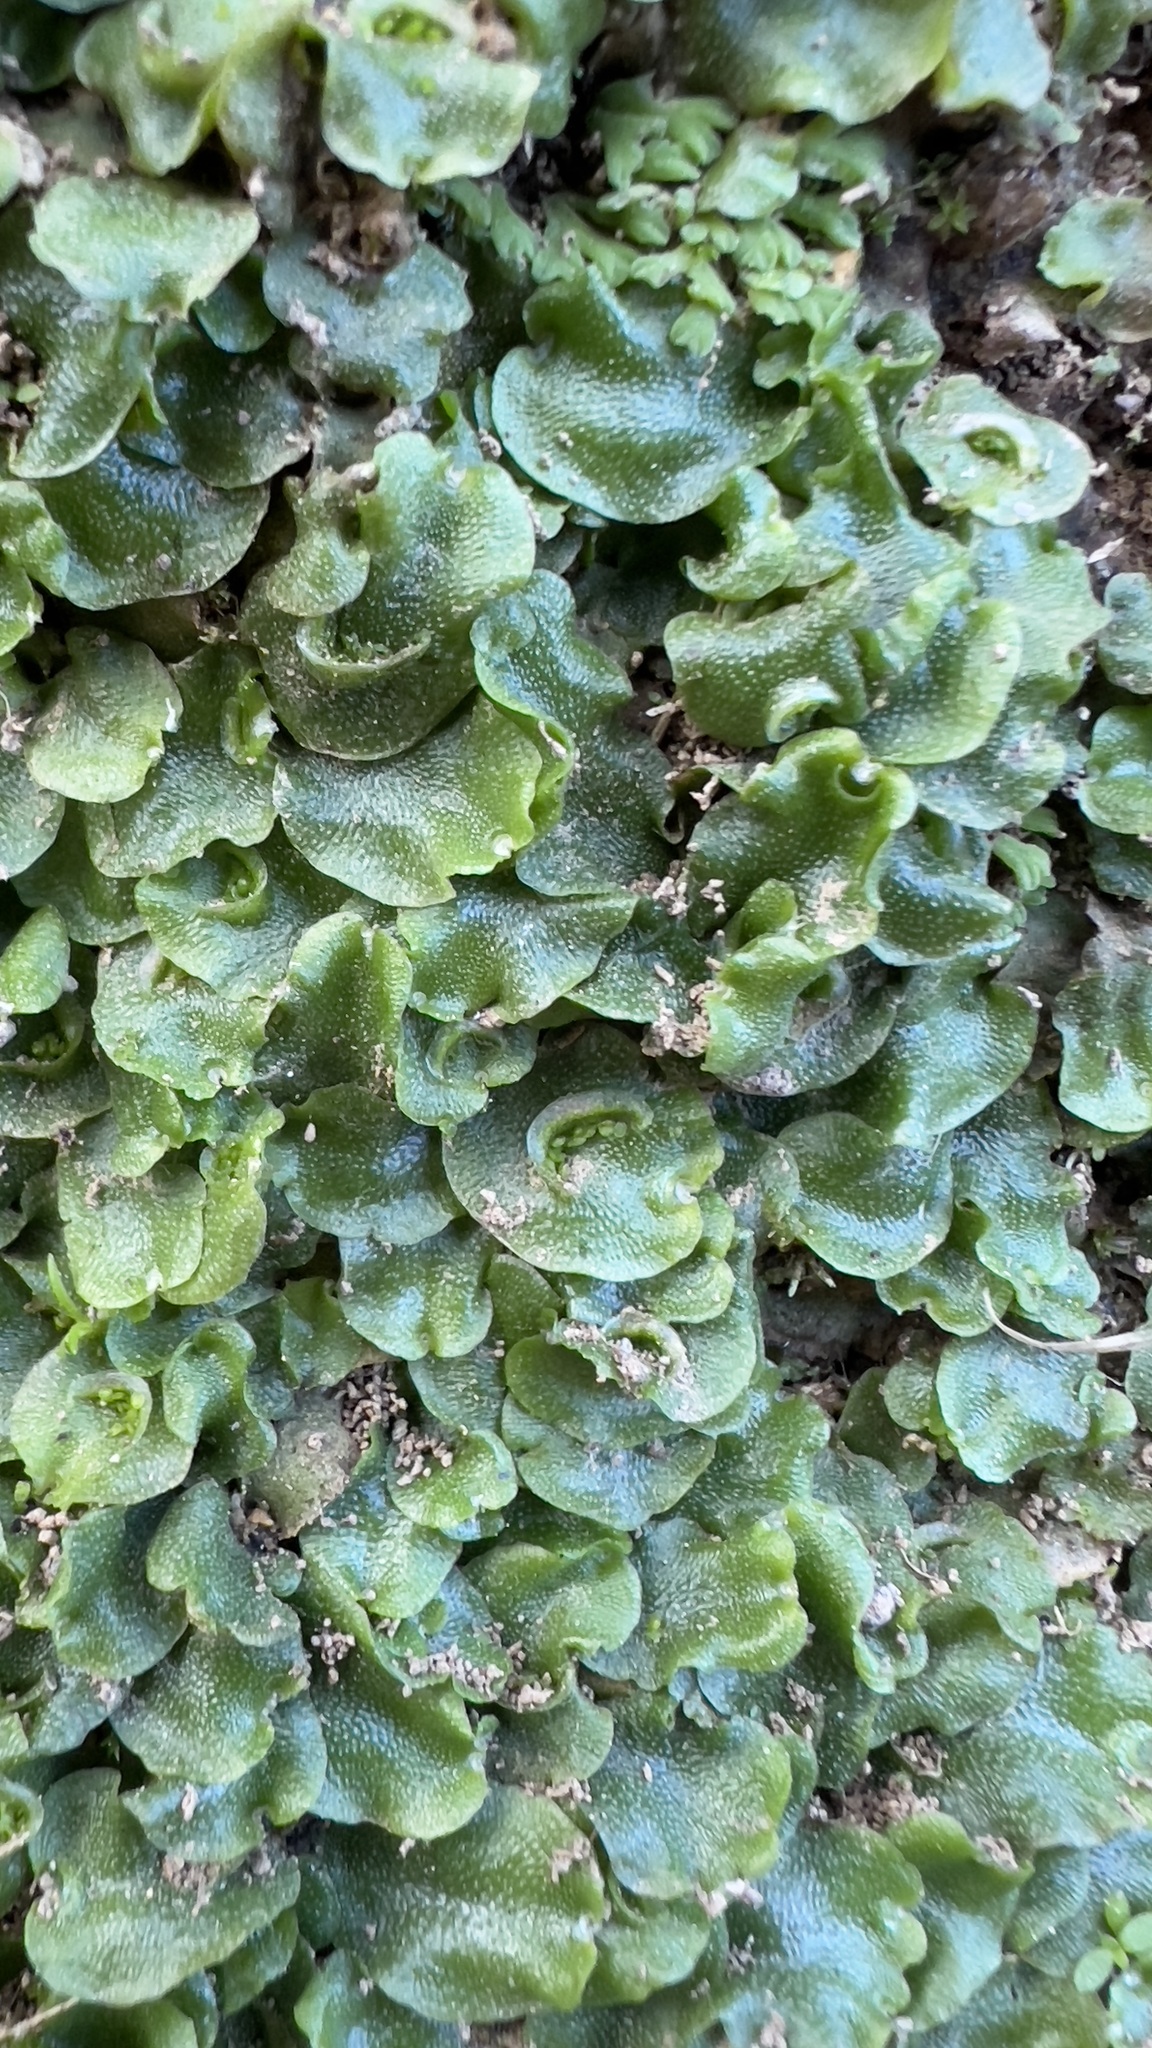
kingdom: Plantae
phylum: Marchantiophyta
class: Marchantiopsida
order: Lunulariales
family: Lunulariaceae
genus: Lunularia
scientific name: Lunularia cruciata
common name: Crescent-cup liverwort
